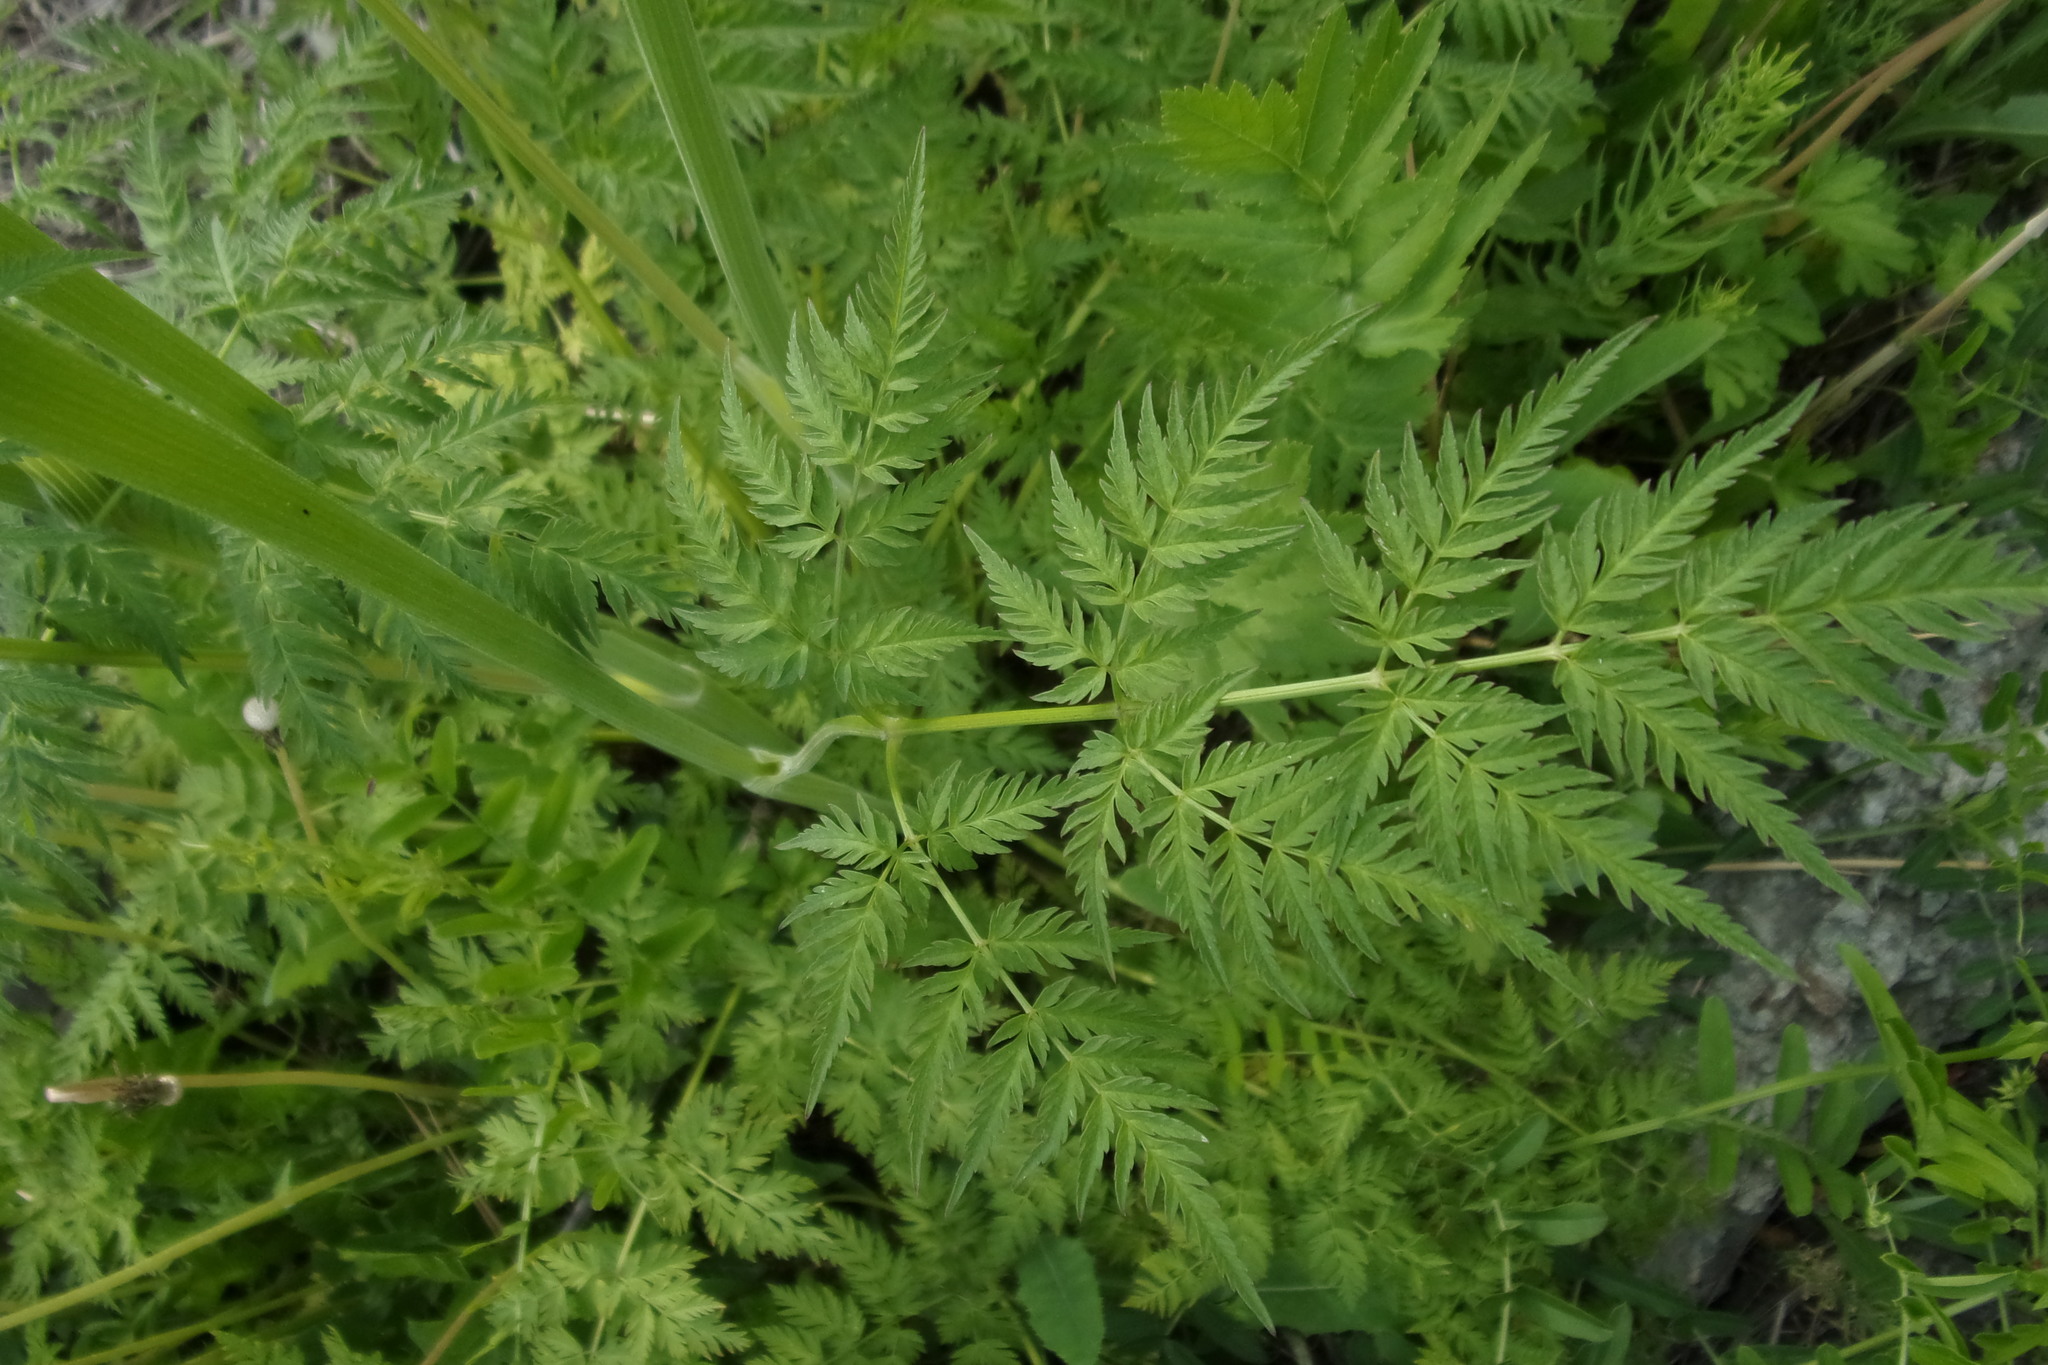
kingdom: Plantae
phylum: Tracheophyta
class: Magnoliopsida
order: Apiales
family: Apiaceae
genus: Anthriscus
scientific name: Anthriscus sylvestris
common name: Cow parsley
